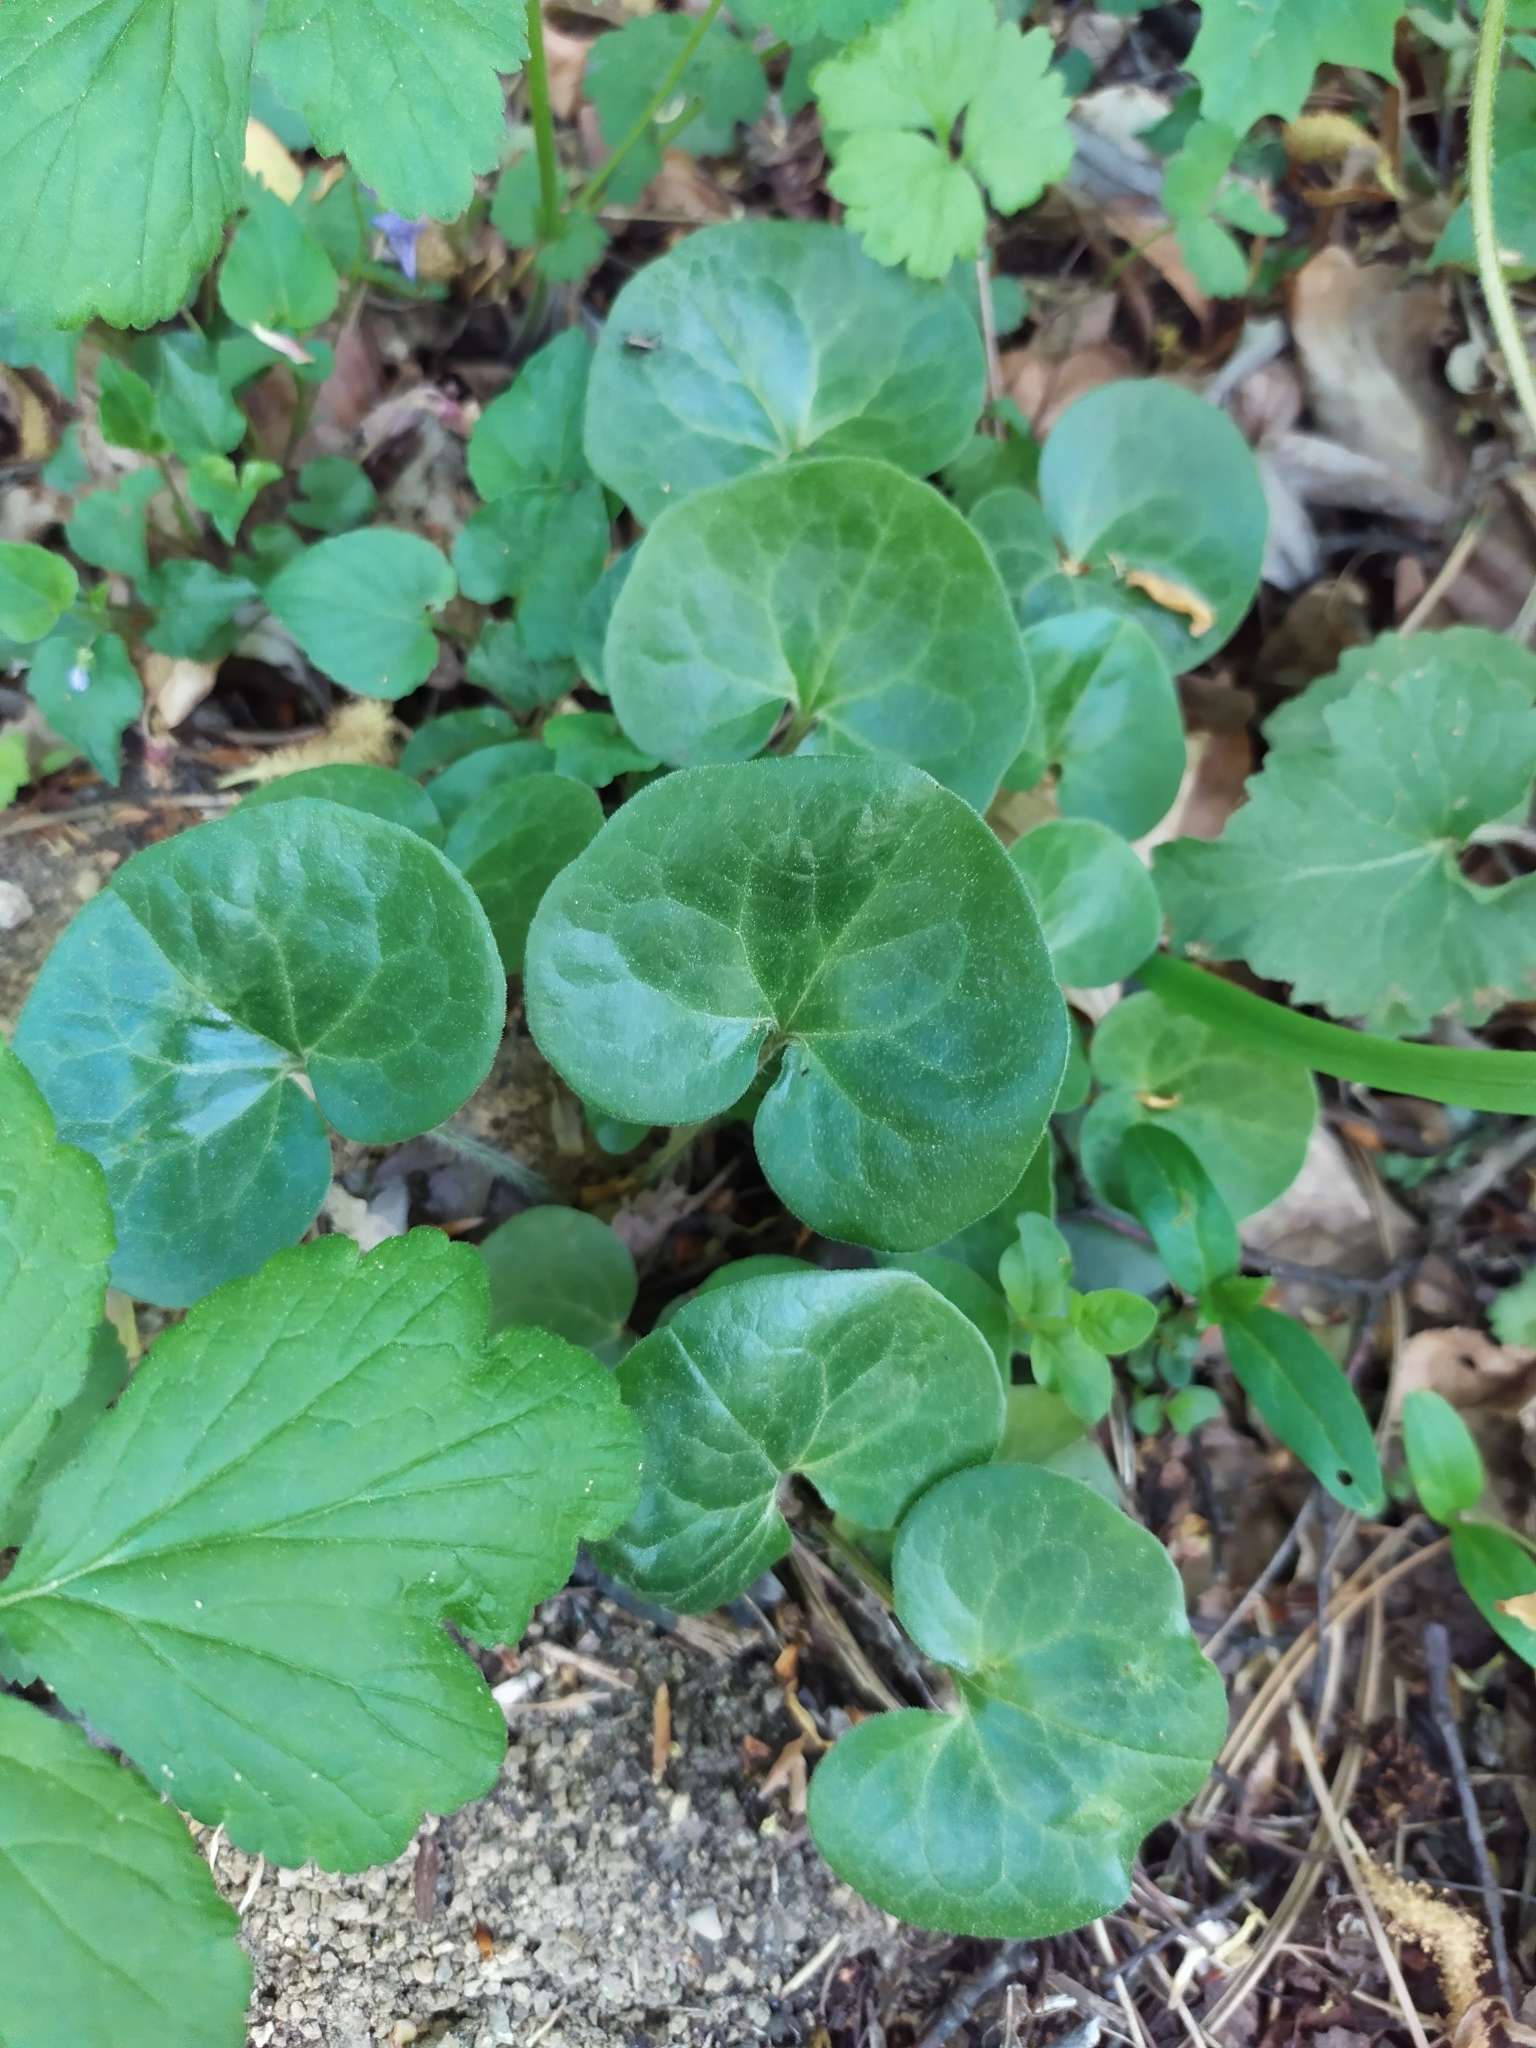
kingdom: Plantae
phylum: Tracheophyta
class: Magnoliopsida
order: Piperales
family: Aristolochiaceae
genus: Asarum
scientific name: Asarum europaeum
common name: Asarabacca
